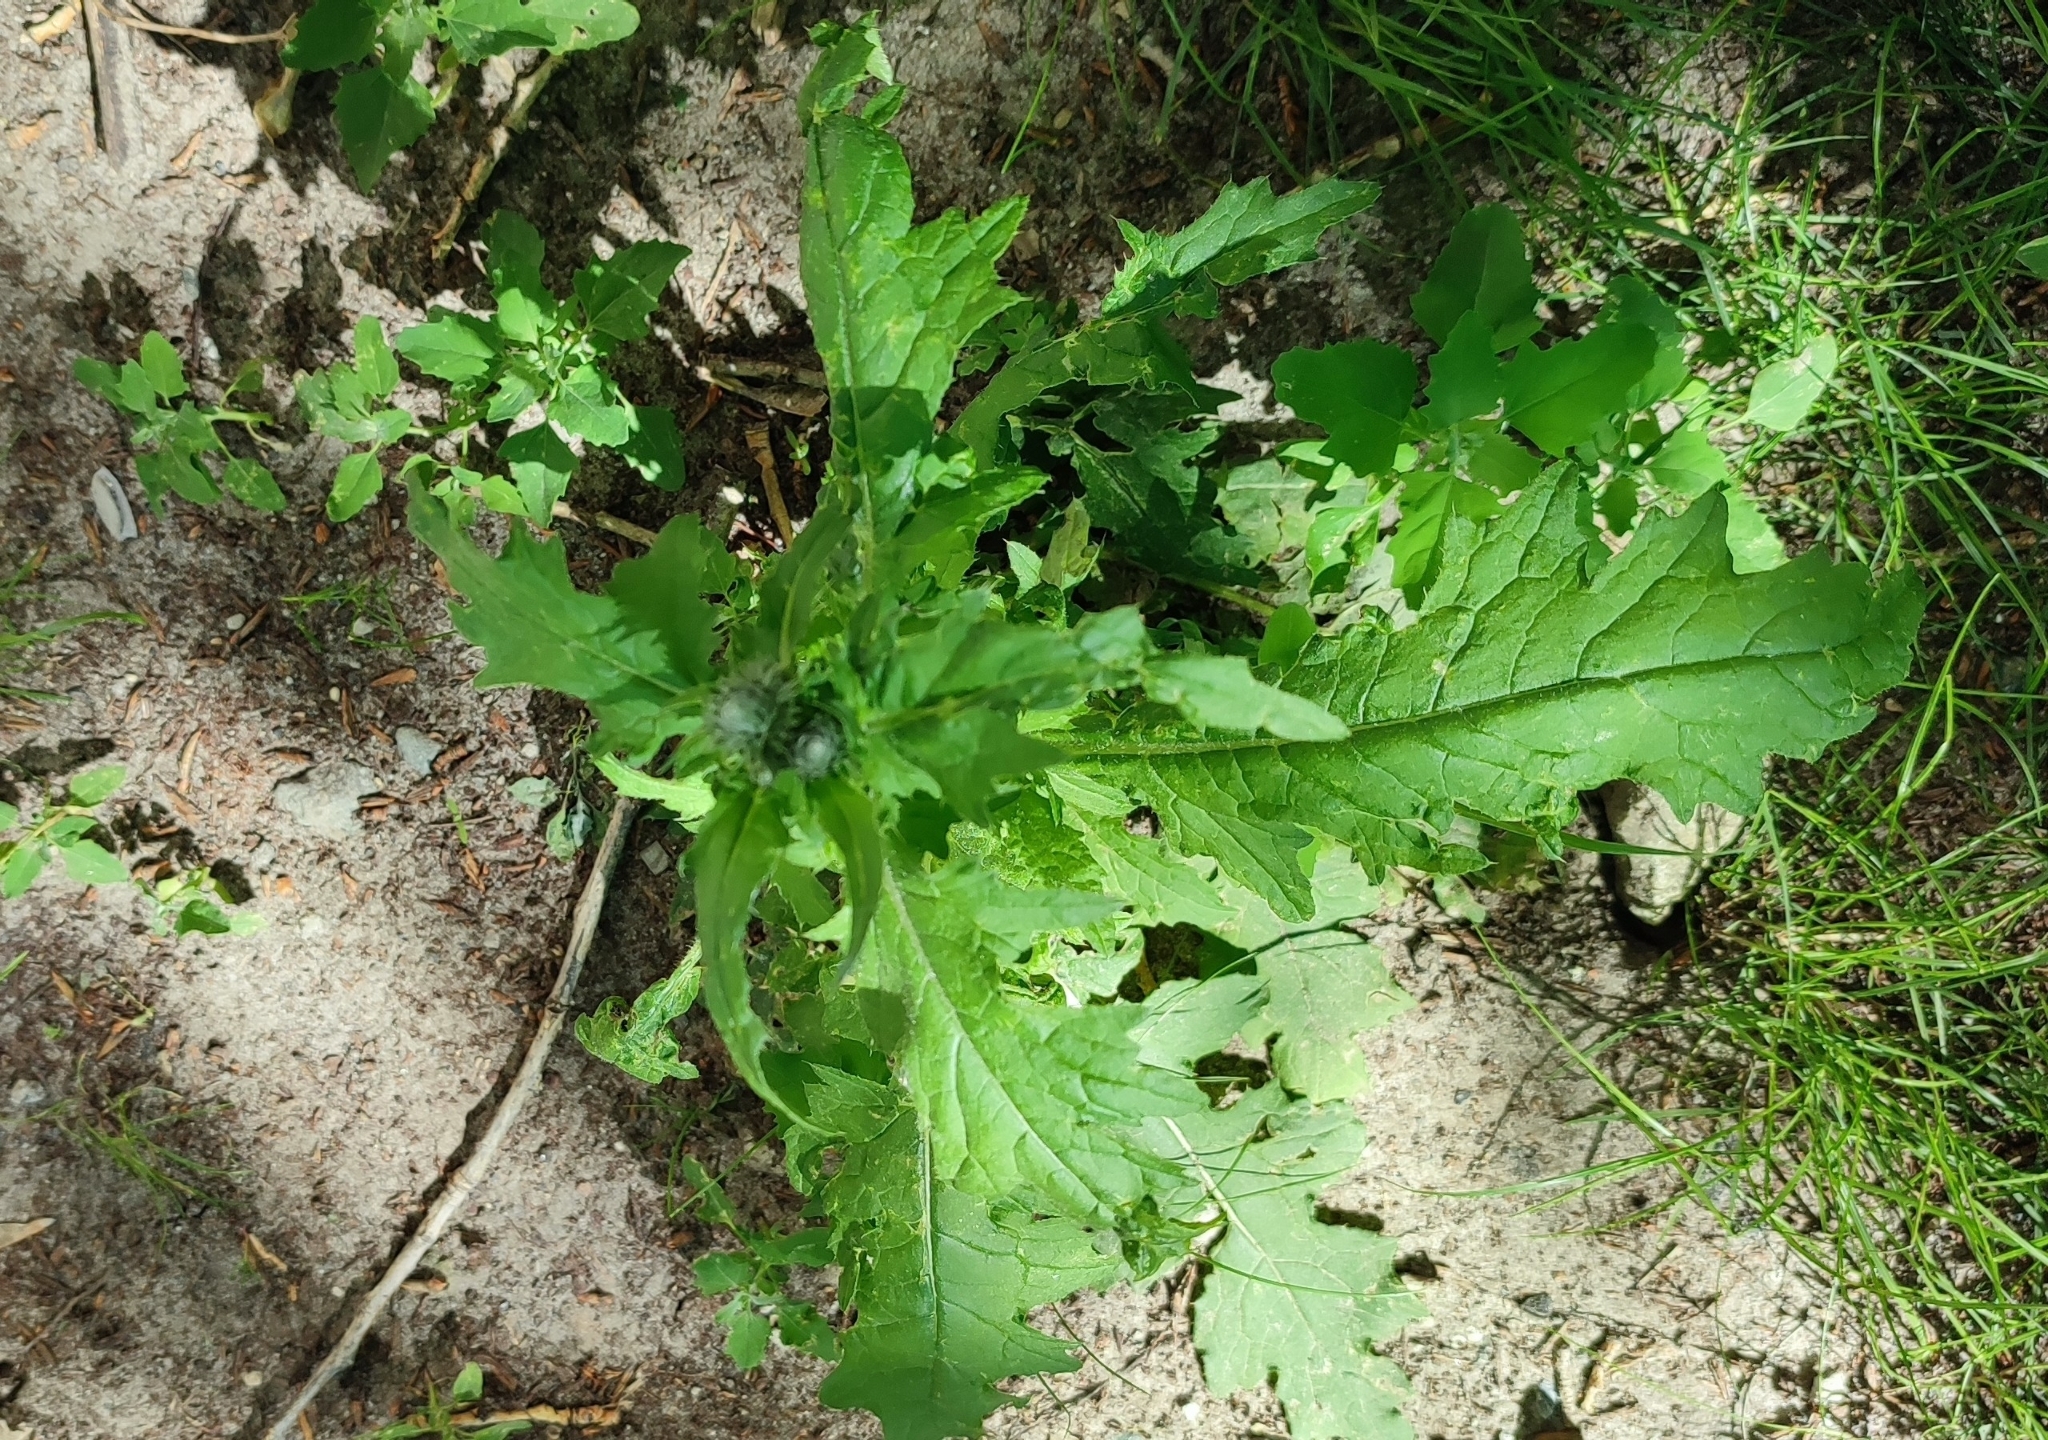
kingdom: Plantae
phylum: Tracheophyta
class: Magnoliopsida
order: Asterales
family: Asteraceae
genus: Carduus
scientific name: Carduus crispus
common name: Welted thistle
